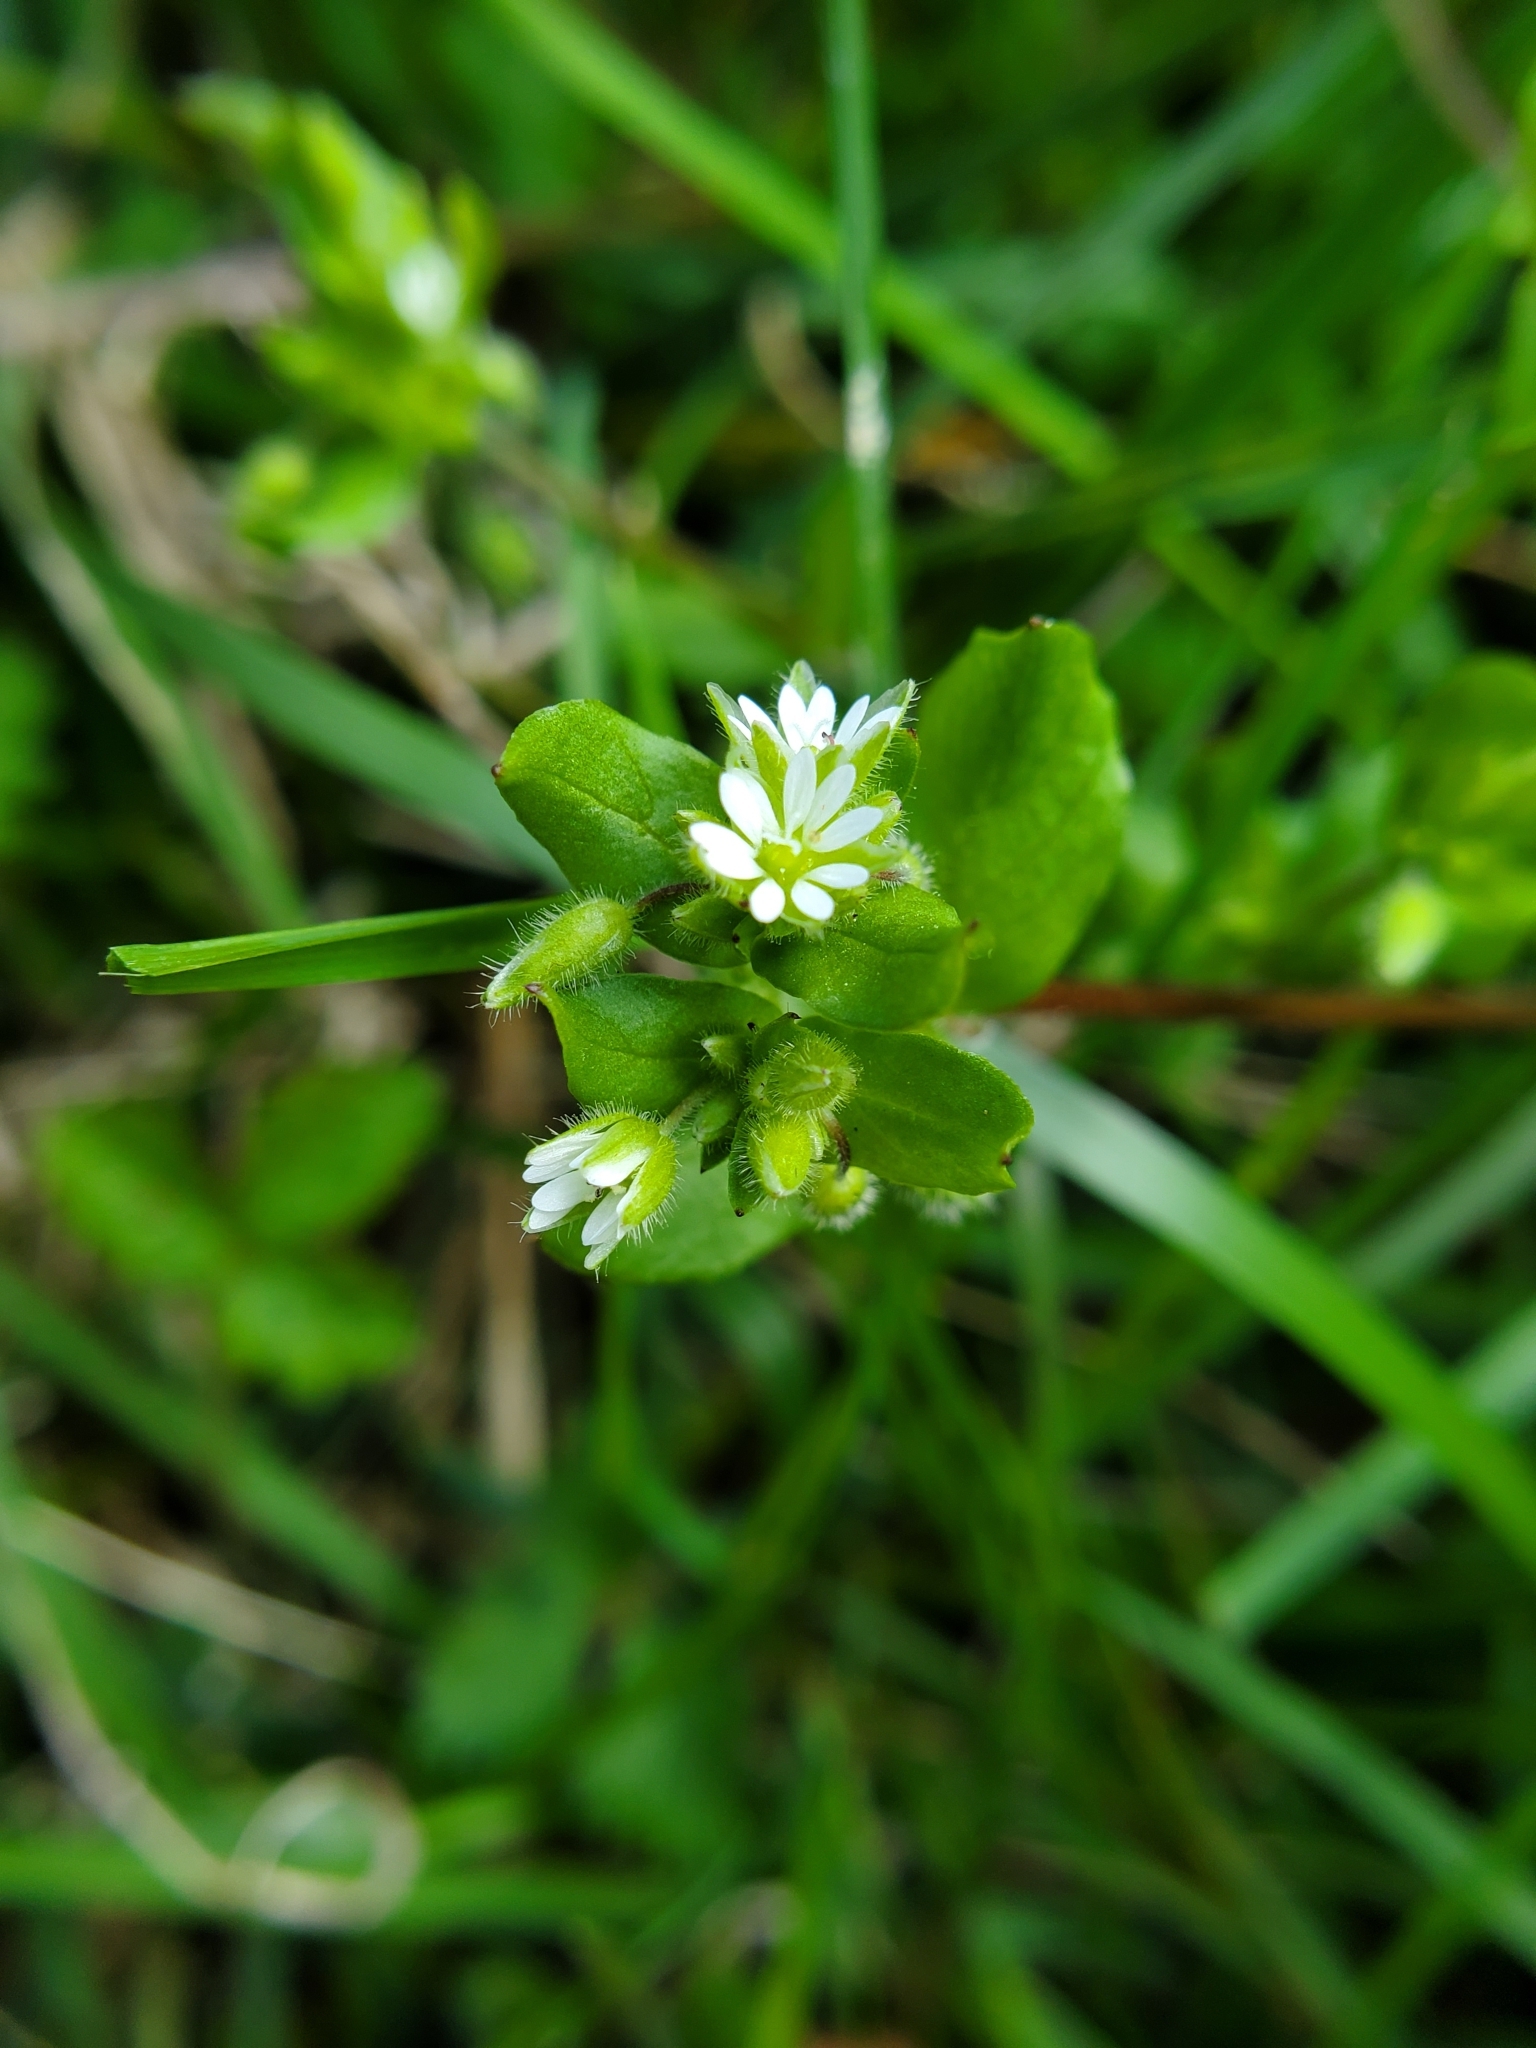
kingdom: Plantae
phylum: Tracheophyta
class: Magnoliopsida
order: Caryophyllales
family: Caryophyllaceae
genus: Stellaria
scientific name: Stellaria media
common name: Common chickweed
